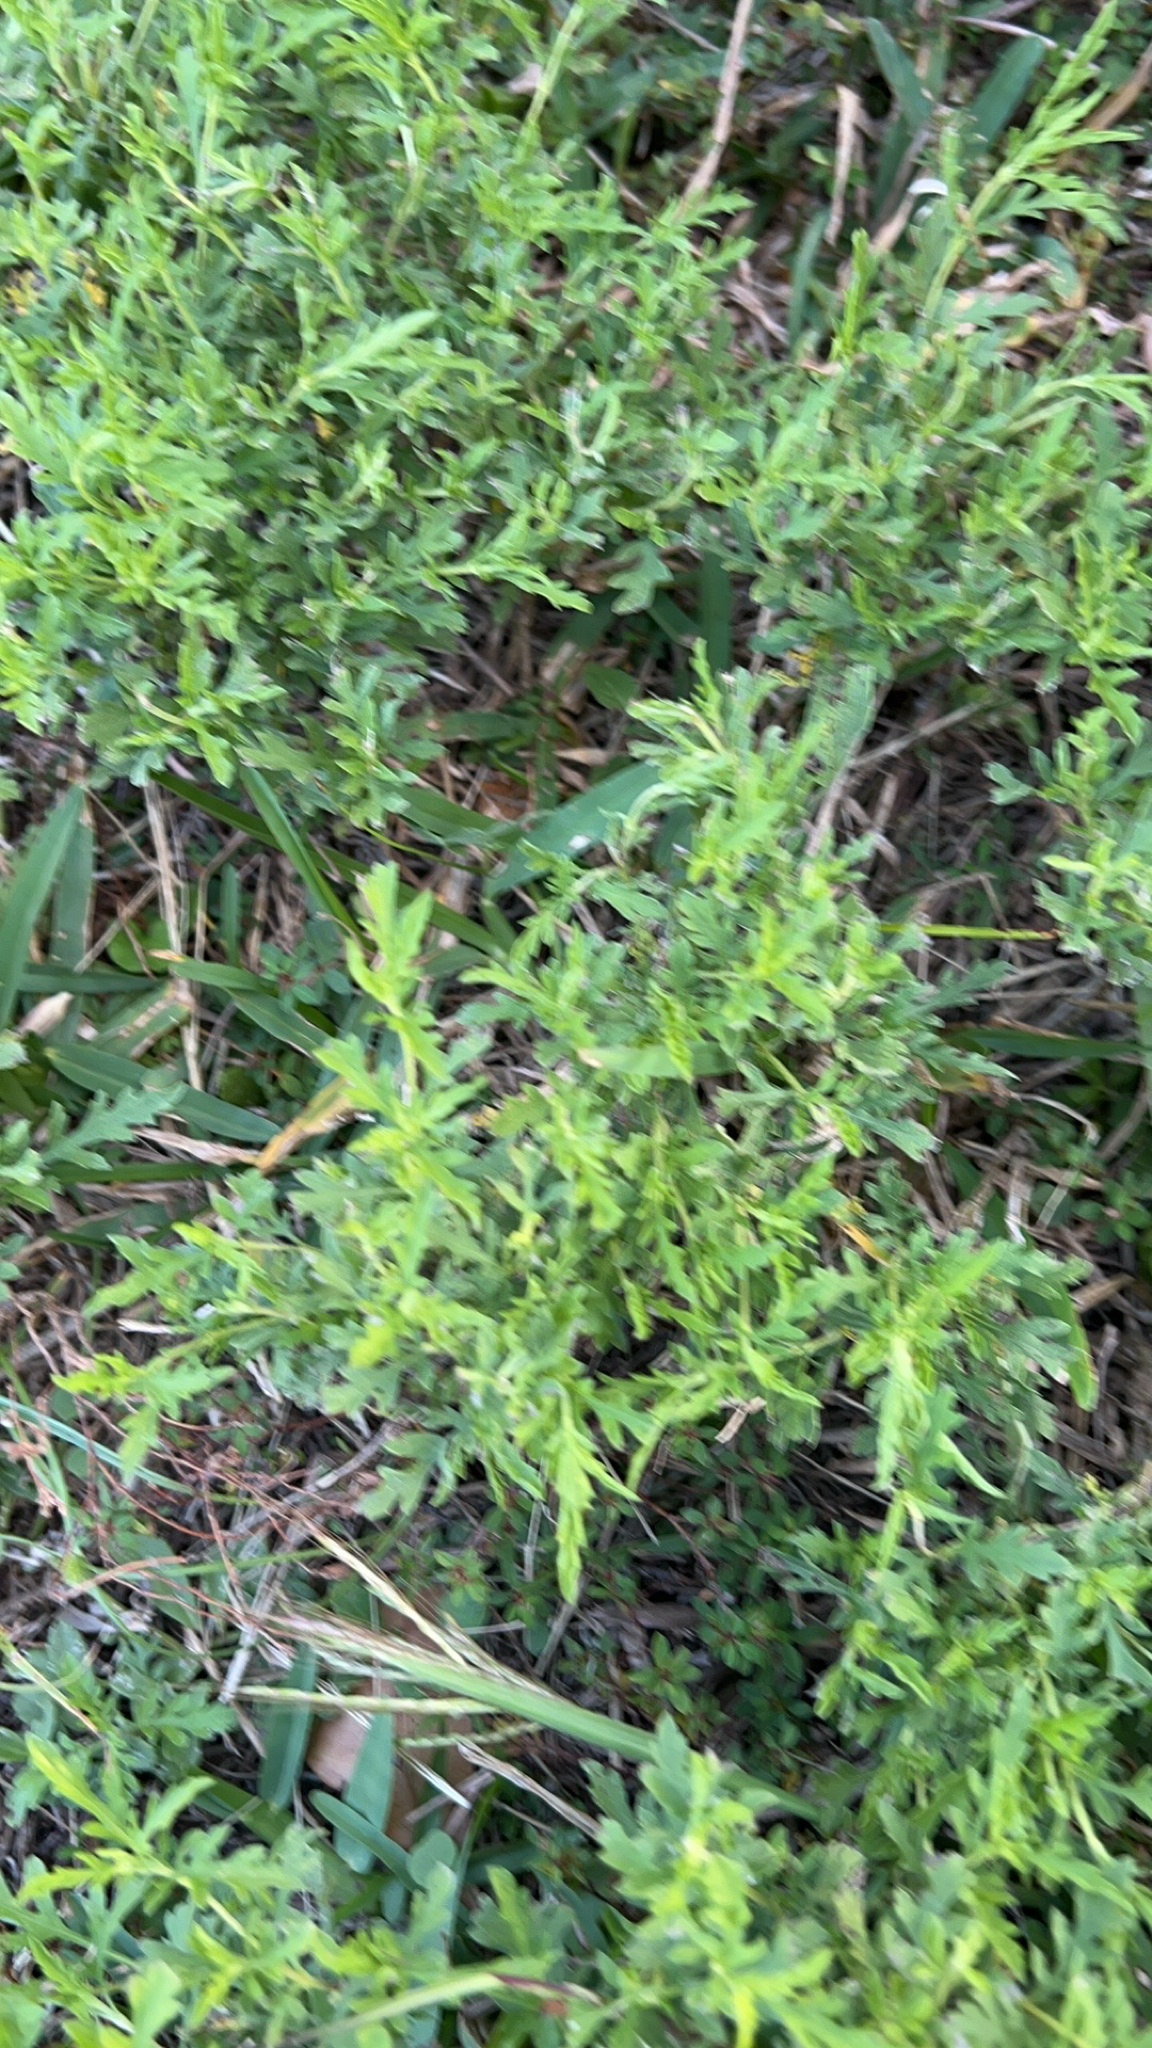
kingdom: Plantae
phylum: Tracheophyta
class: Magnoliopsida
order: Asterales
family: Asteraceae
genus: Ambrosia
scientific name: Ambrosia psilostachya
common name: Perennial ragweed
